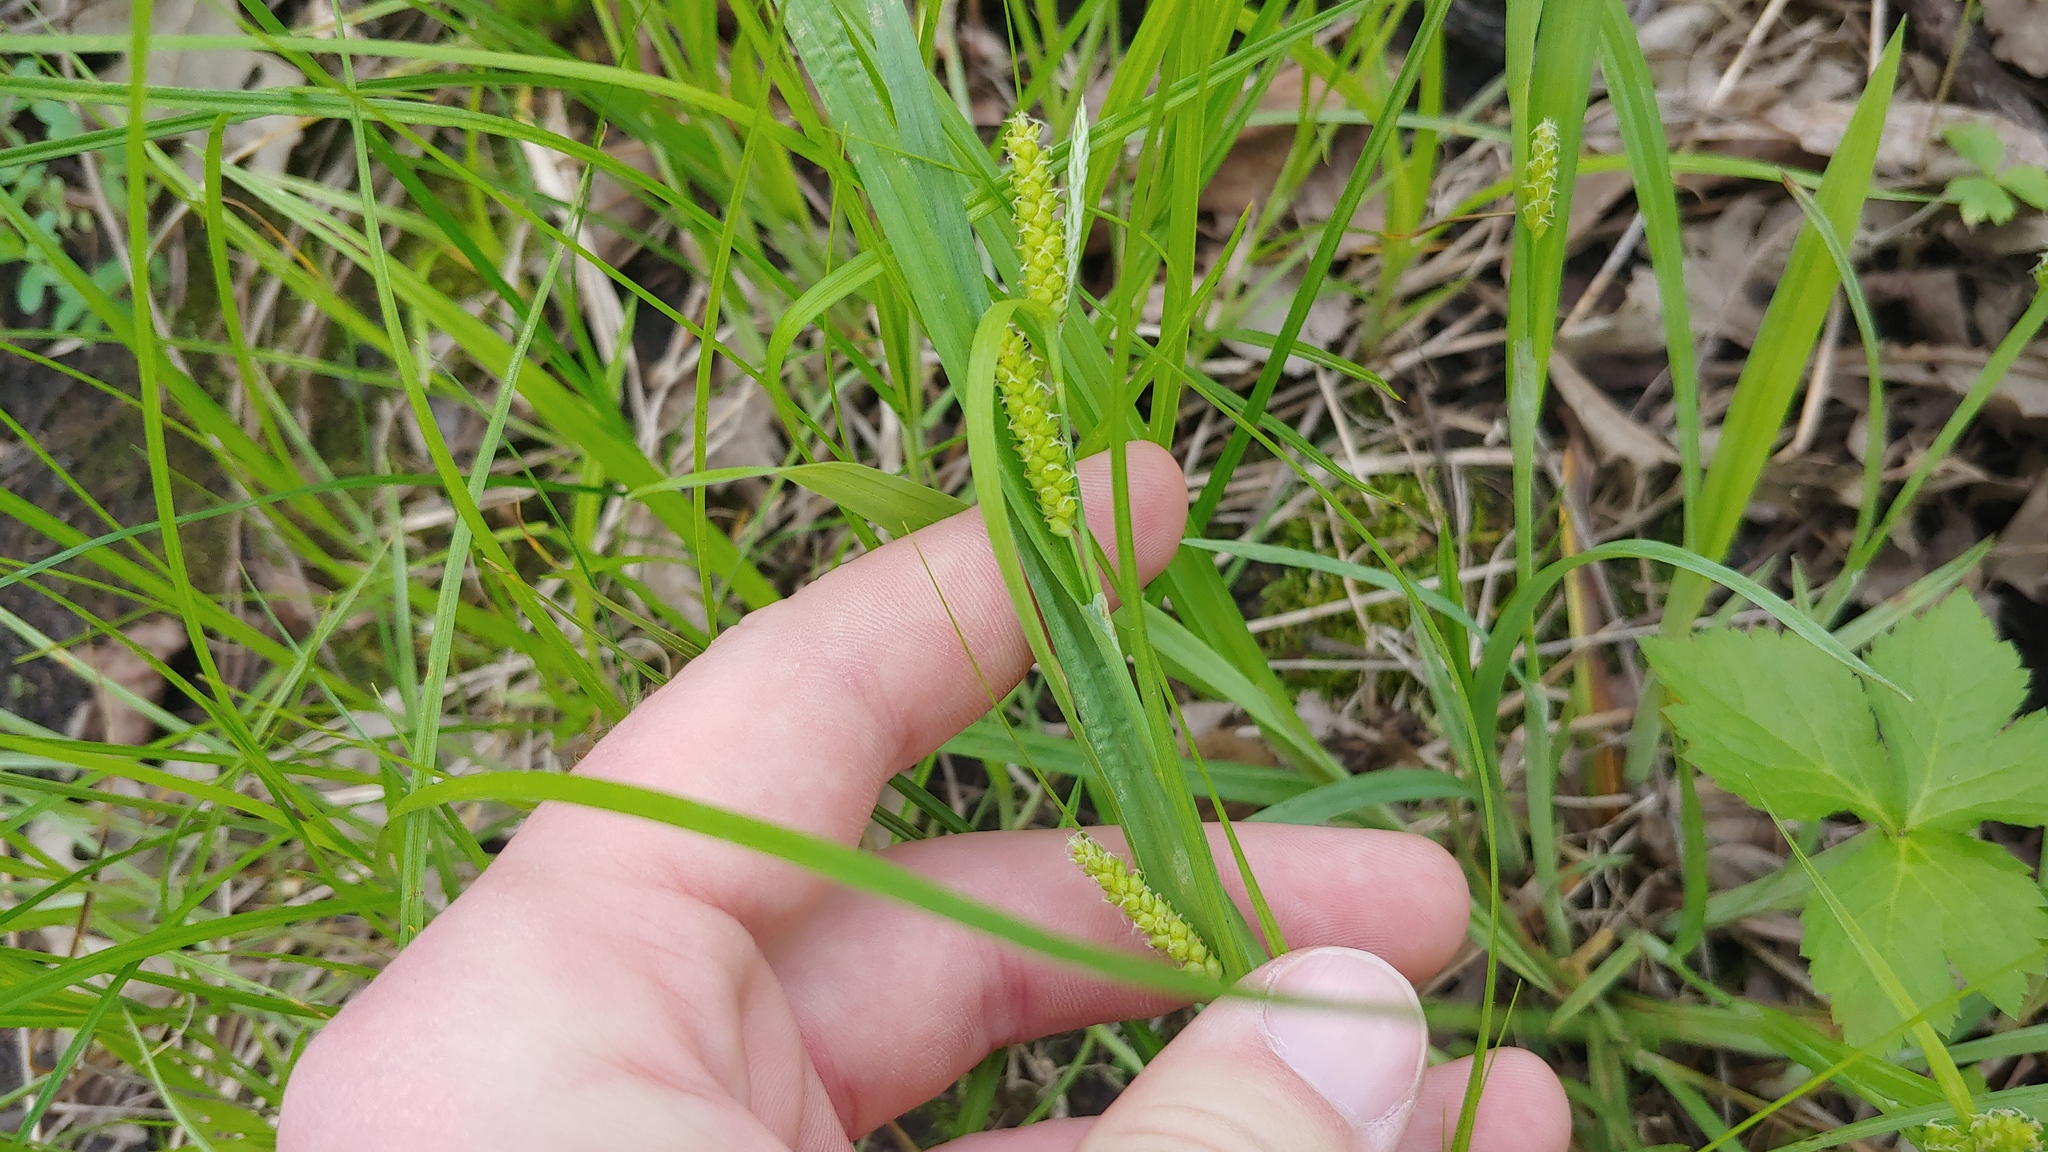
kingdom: Plantae
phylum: Tracheophyta
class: Liliopsida
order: Poales
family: Cyperaceae
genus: Carex
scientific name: Carex granularis
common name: Granular sedge
